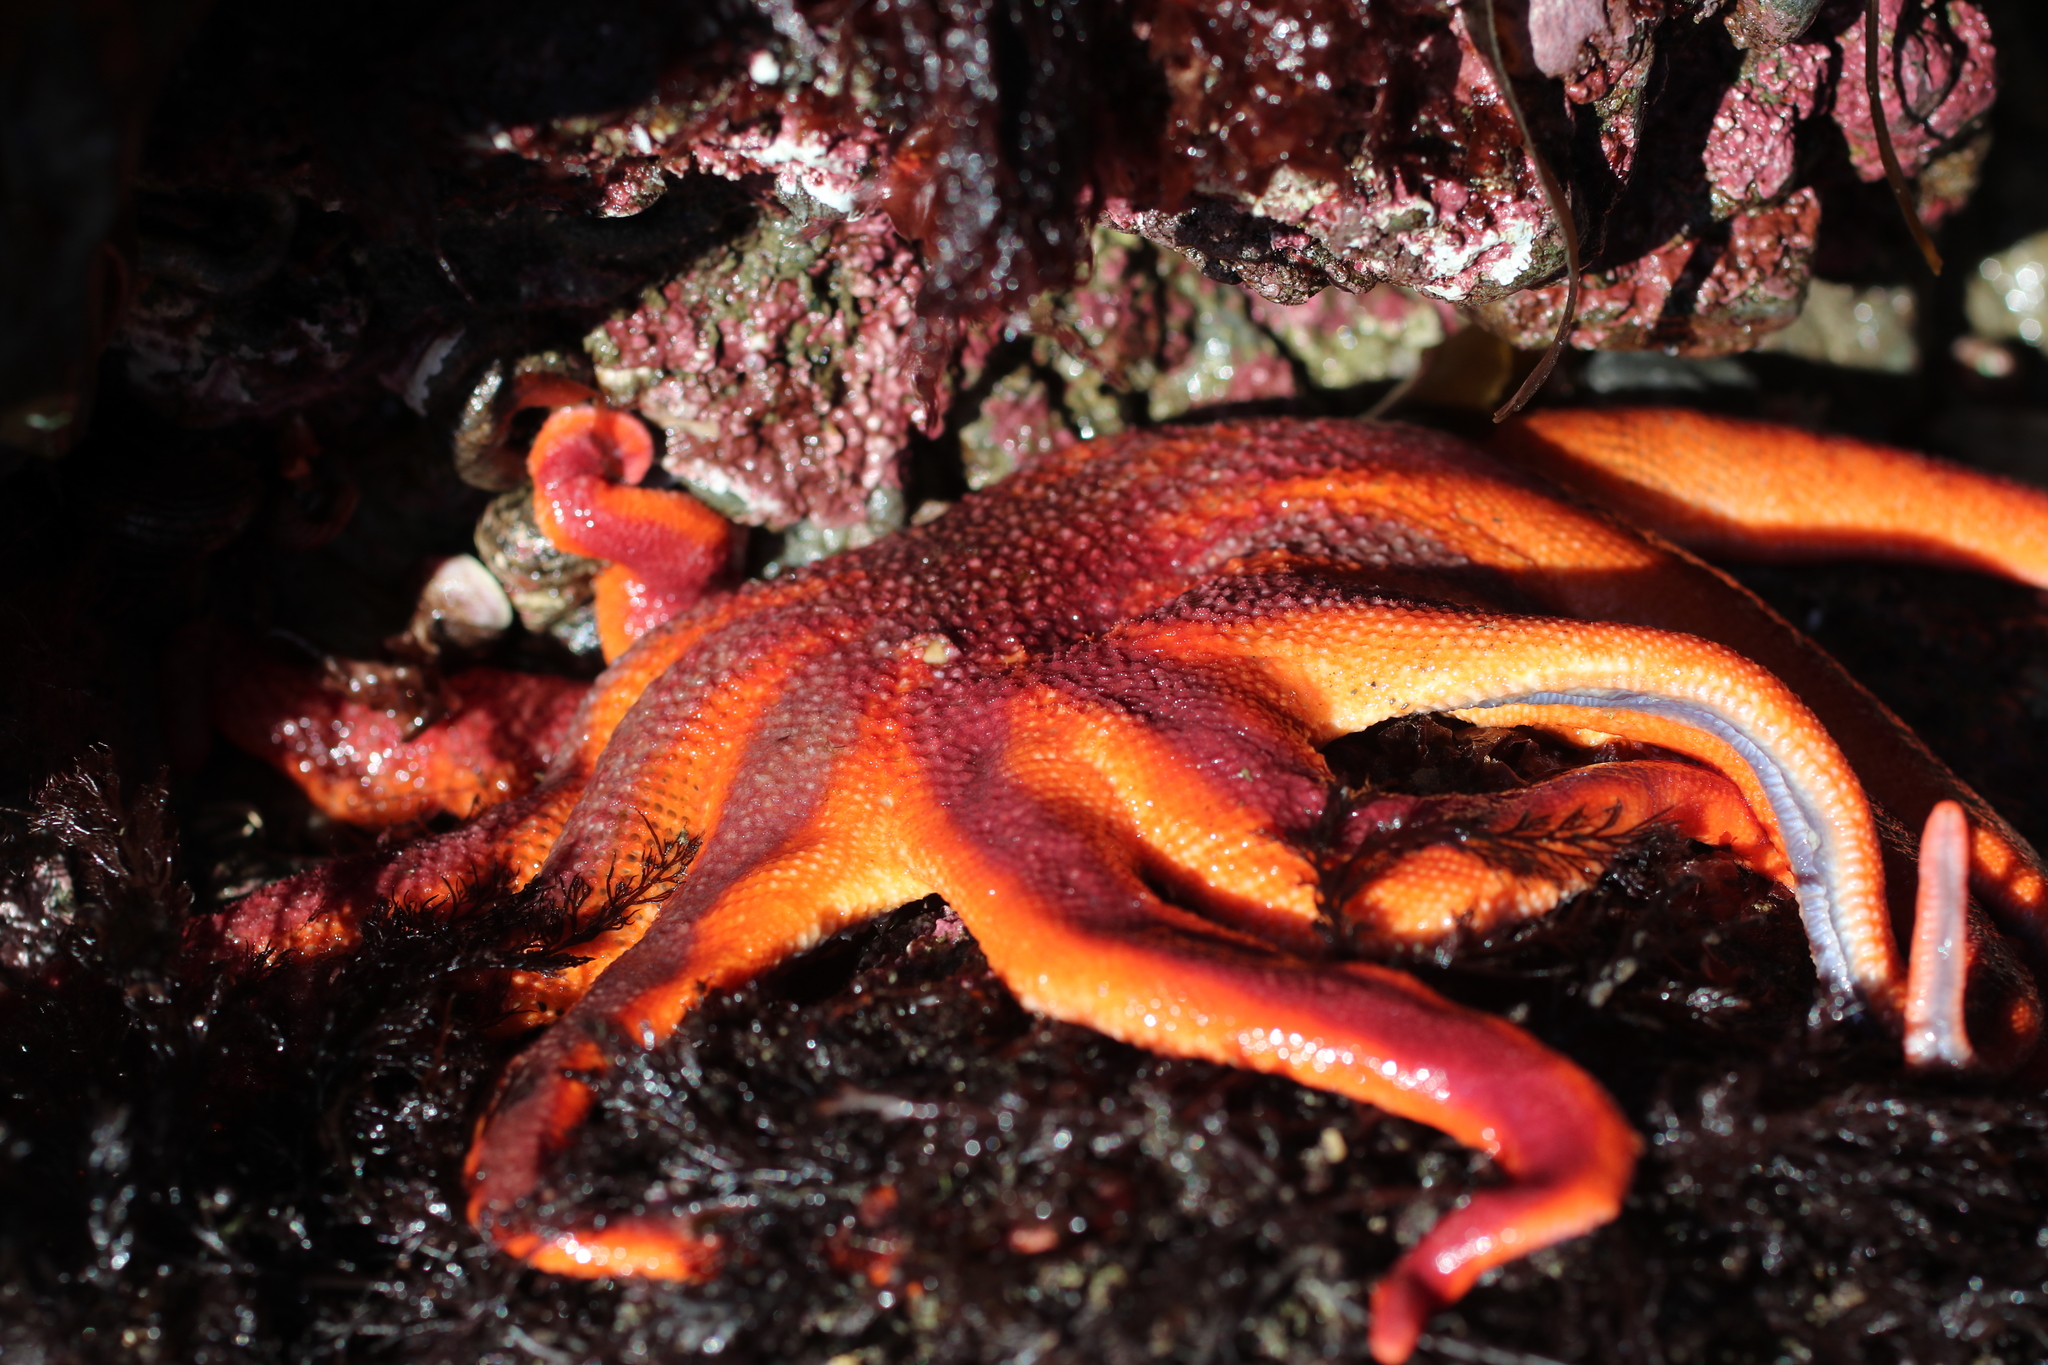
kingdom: Animalia
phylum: Echinodermata
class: Asteroidea
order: Valvatida
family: Solasteridae
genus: Solaster
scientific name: Solaster stimpsoni
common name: Orange sun star
